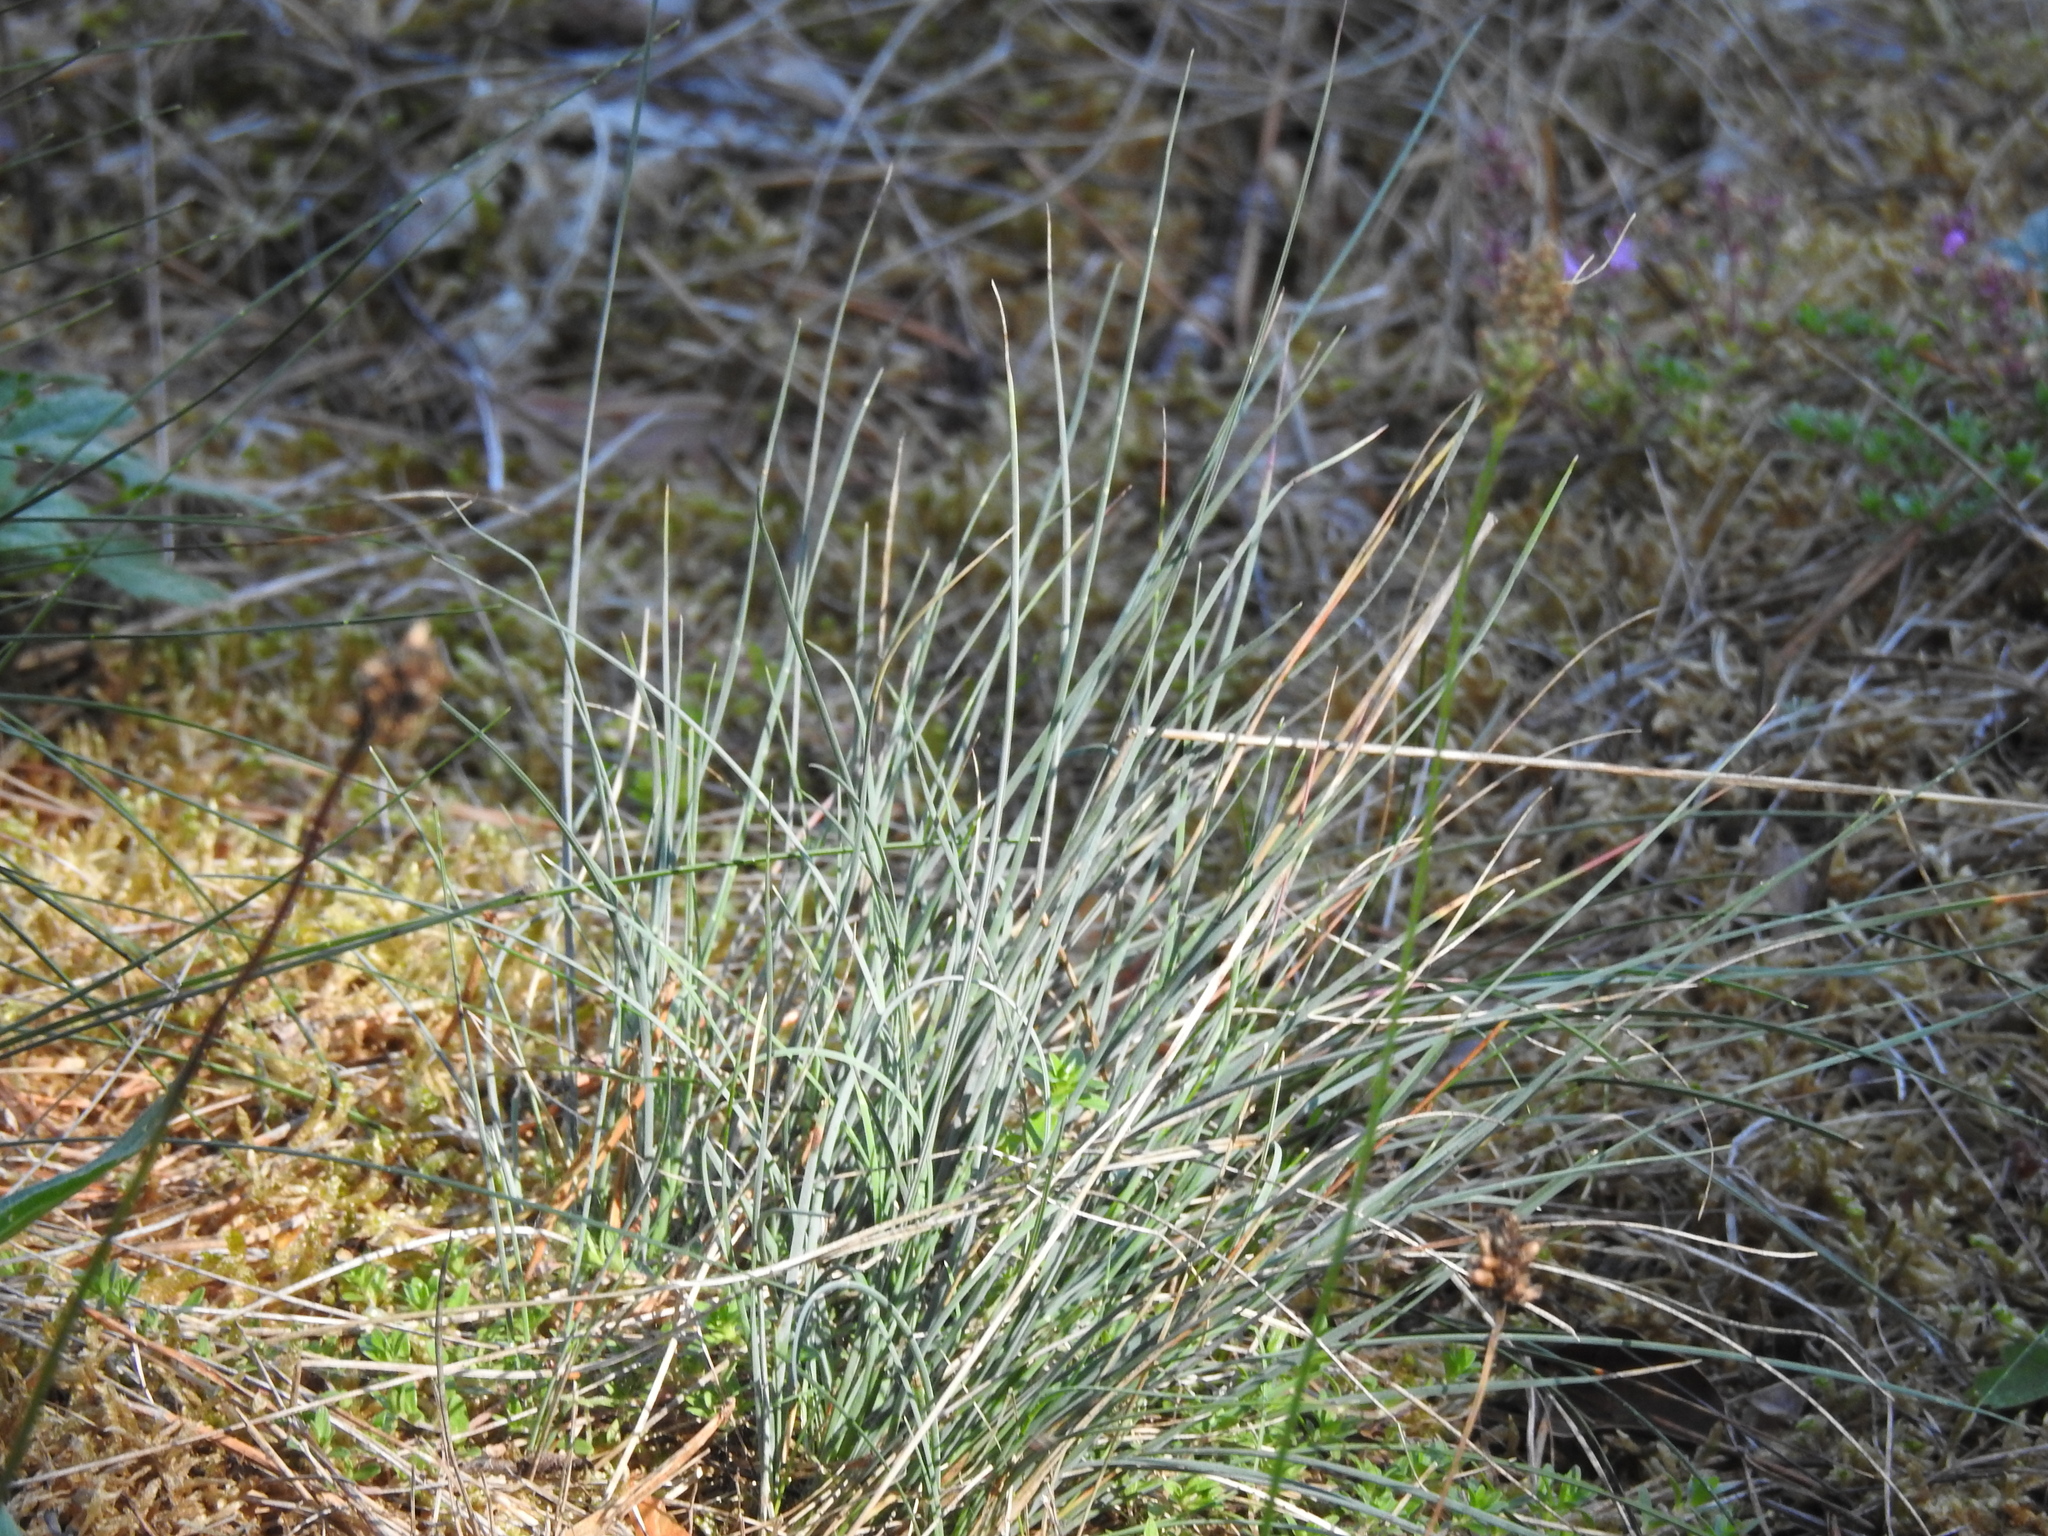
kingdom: Plantae
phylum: Tracheophyta
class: Liliopsida
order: Poales
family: Poaceae
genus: Corynephorus
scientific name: Corynephorus canescens
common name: Grey hair-grass
